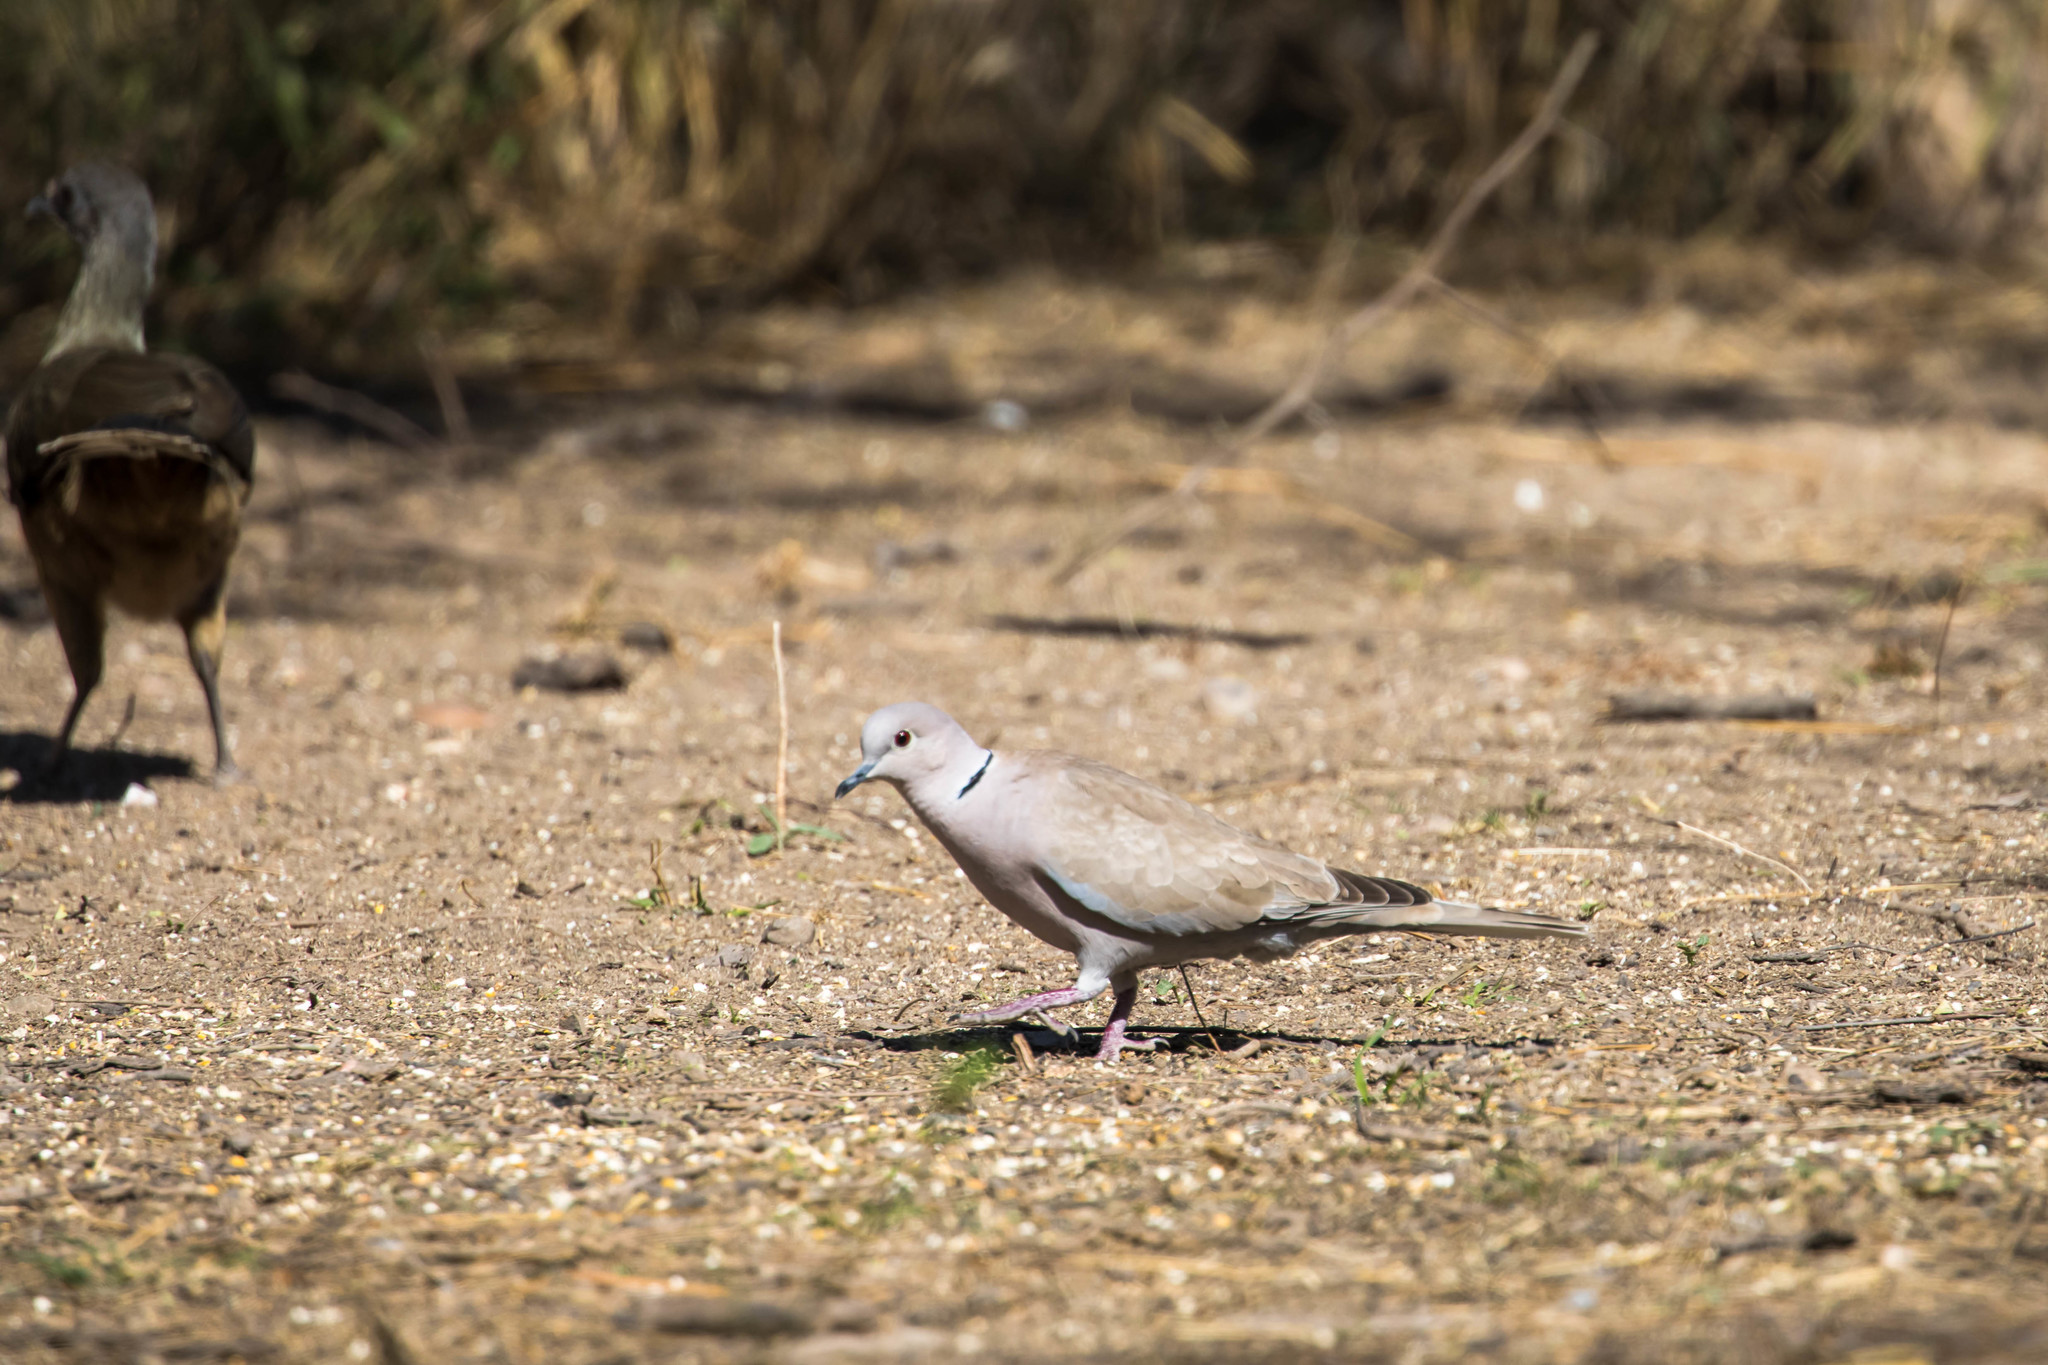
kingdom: Animalia
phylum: Chordata
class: Aves
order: Columbiformes
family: Columbidae
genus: Streptopelia
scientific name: Streptopelia decaocto
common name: Eurasian collared dove
